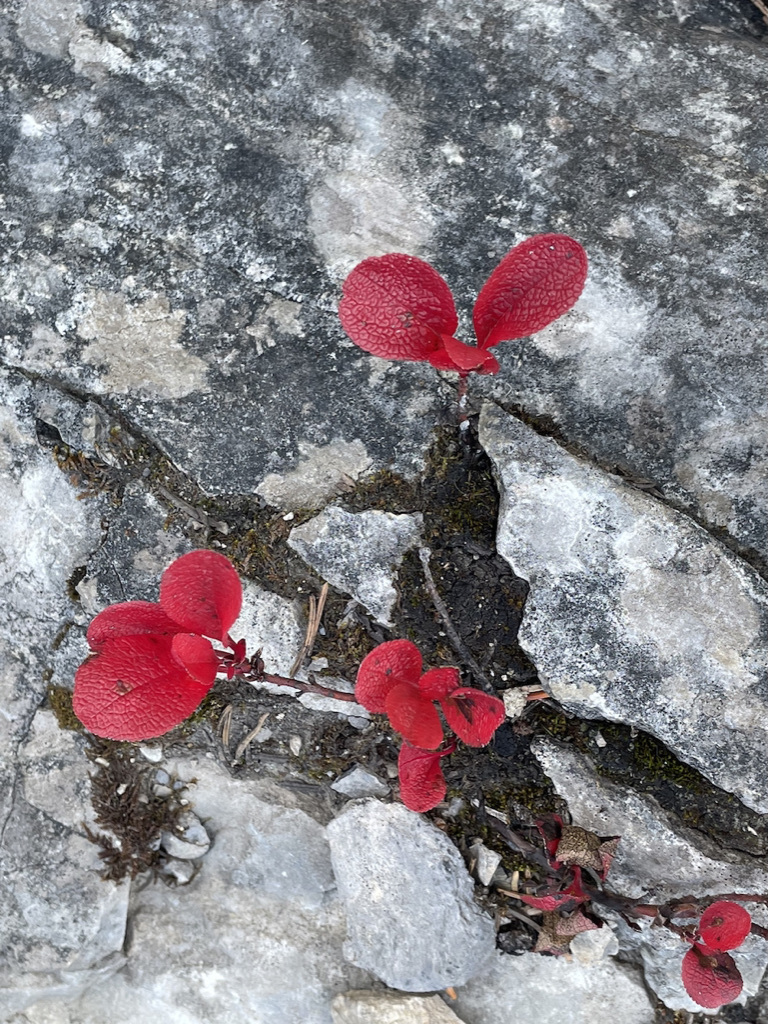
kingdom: Plantae
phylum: Tracheophyta
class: Magnoliopsida
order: Ericales
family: Ericaceae
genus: Arctostaphylos
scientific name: Arctostaphylos rubra
